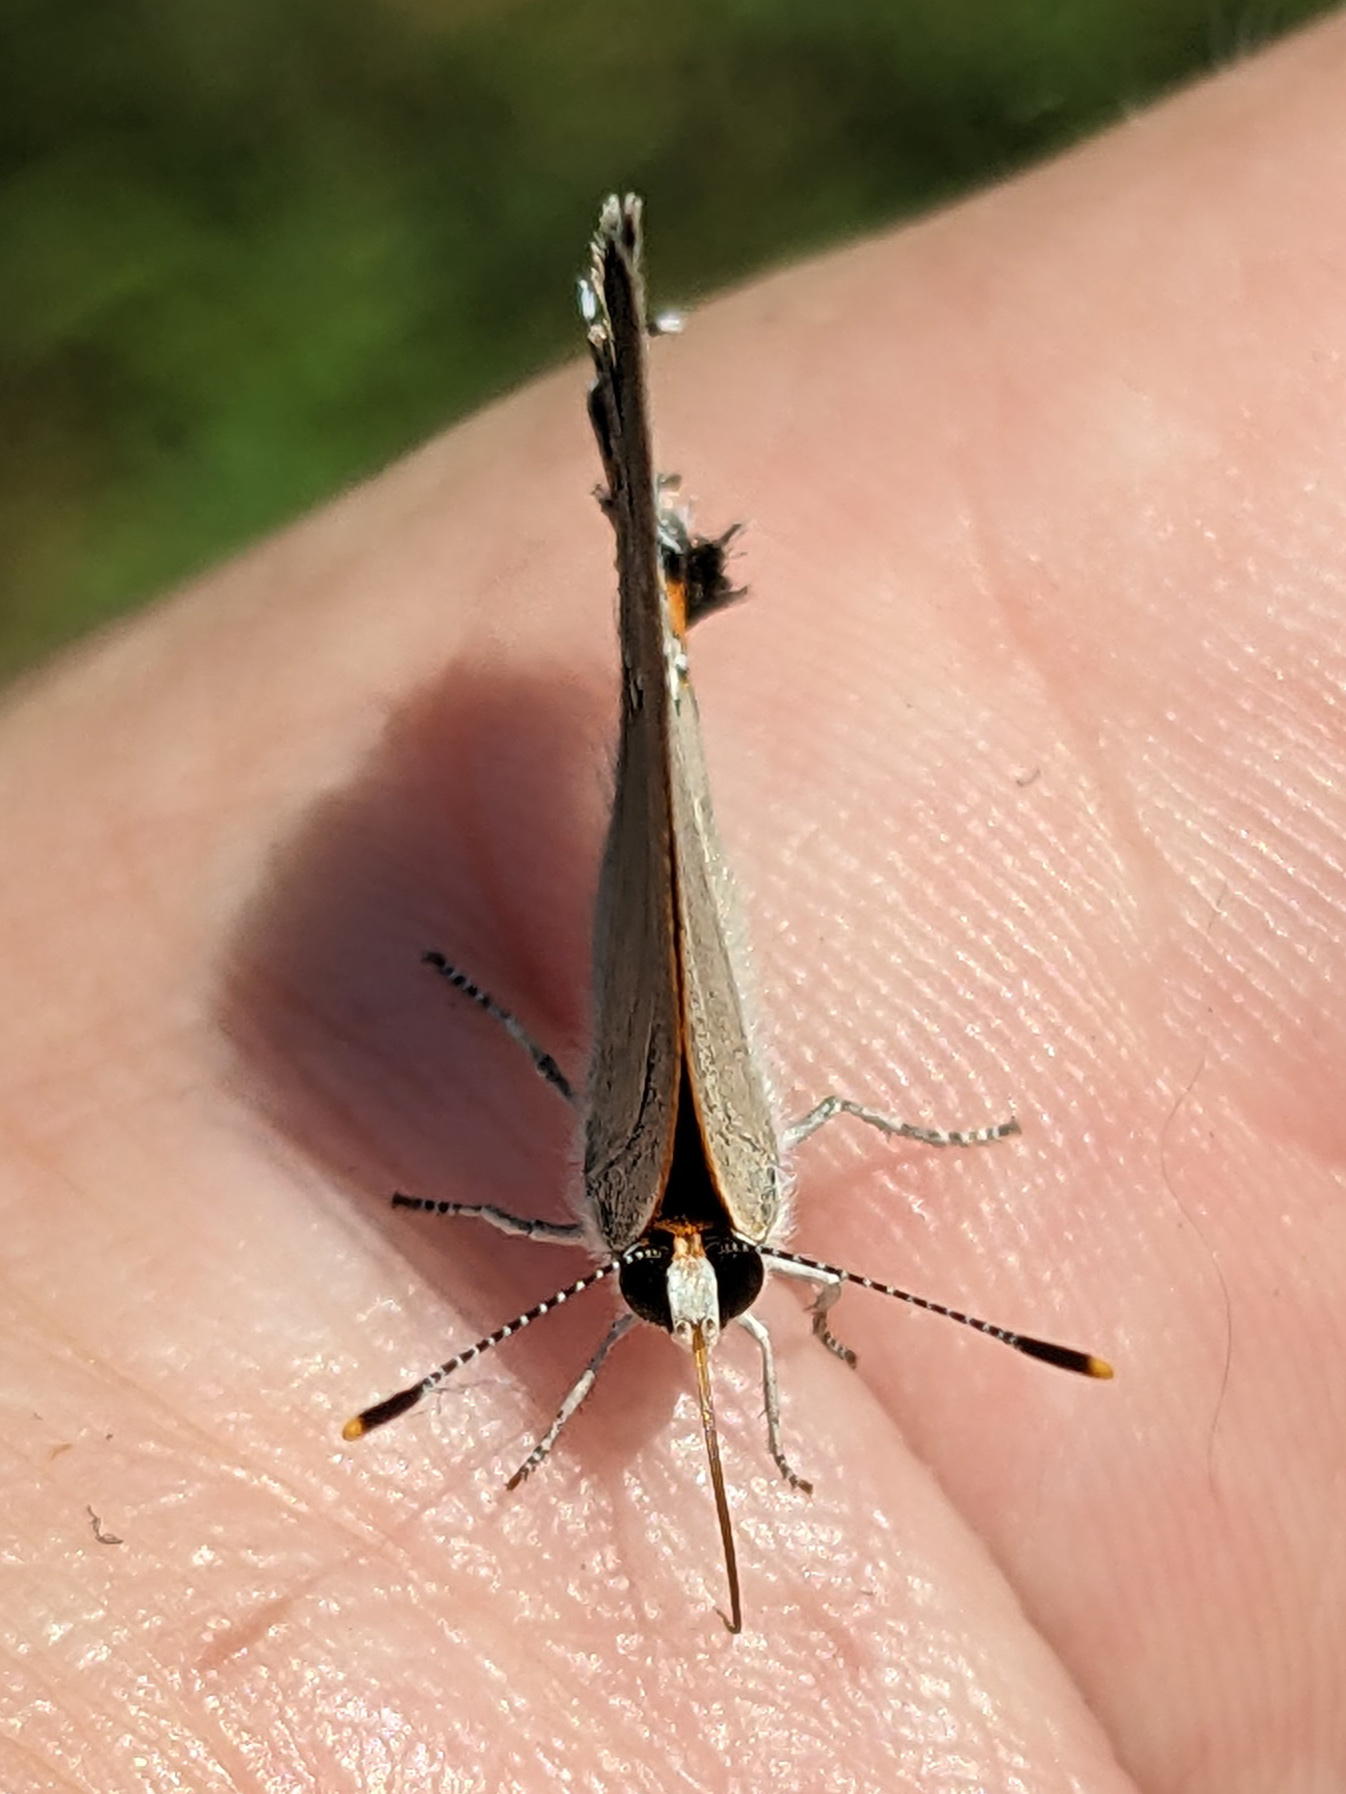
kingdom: Animalia
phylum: Arthropoda
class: Insecta
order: Lepidoptera
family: Lycaenidae
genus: Strymon
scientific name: Strymon melinus
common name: Gray hairstreak
